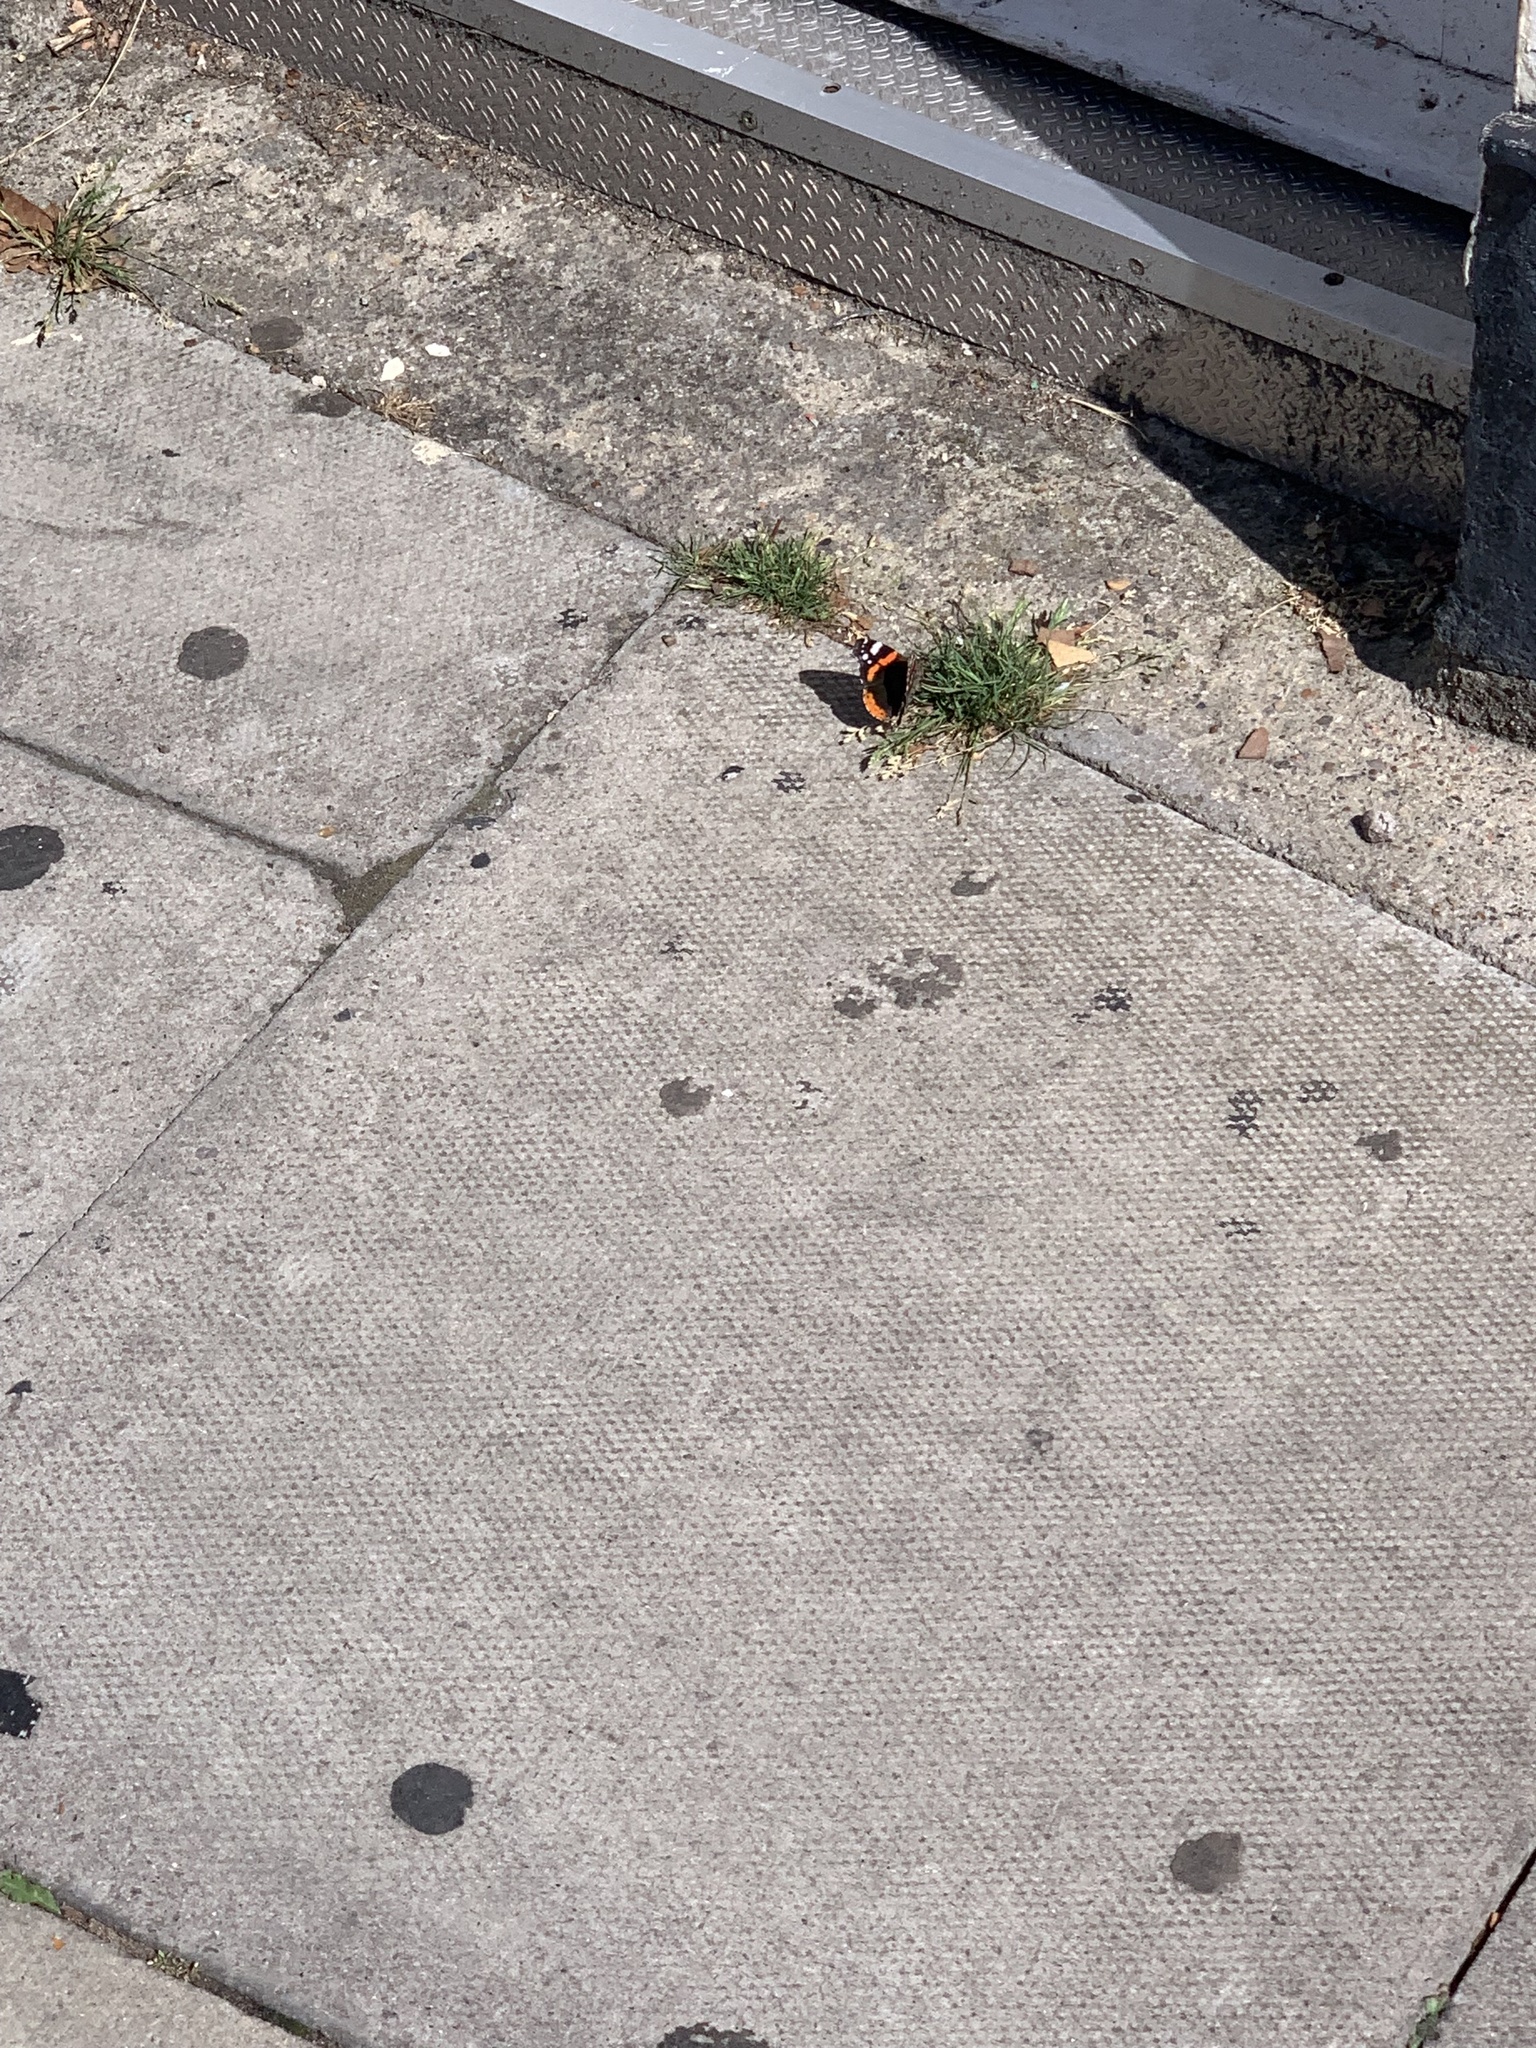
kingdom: Animalia
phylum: Arthropoda
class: Insecta
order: Lepidoptera
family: Nymphalidae
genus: Vanessa
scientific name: Vanessa atalanta
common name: Red admiral
